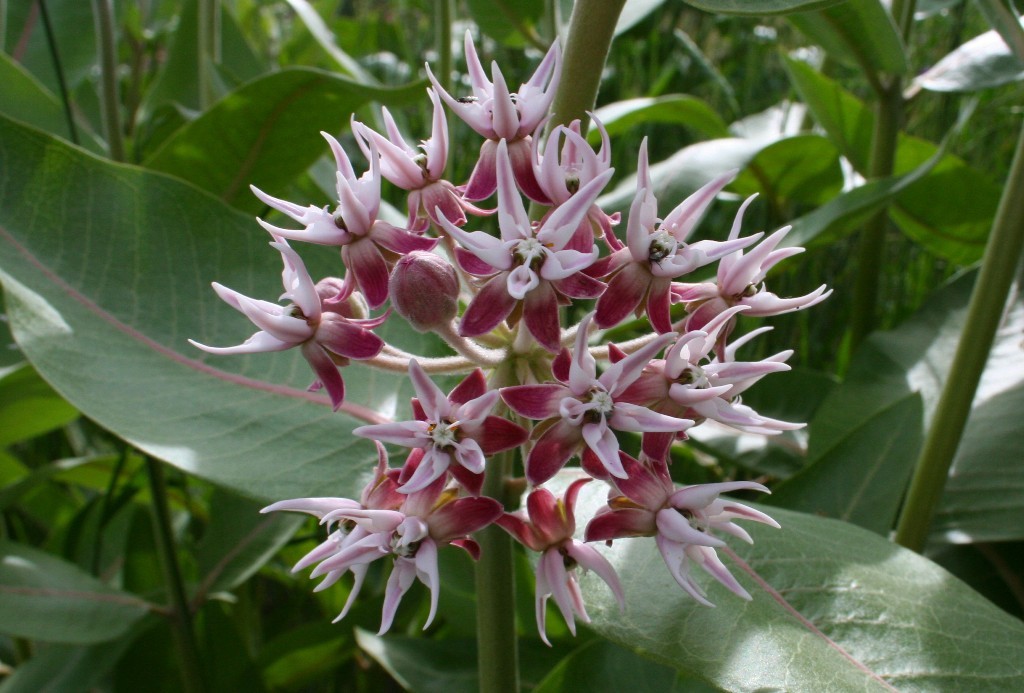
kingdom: Plantae
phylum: Tracheophyta
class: Magnoliopsida
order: Gentianales
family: Apocynaceae
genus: Asclepias
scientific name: Asclepias speciosa
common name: Showy milkweed
